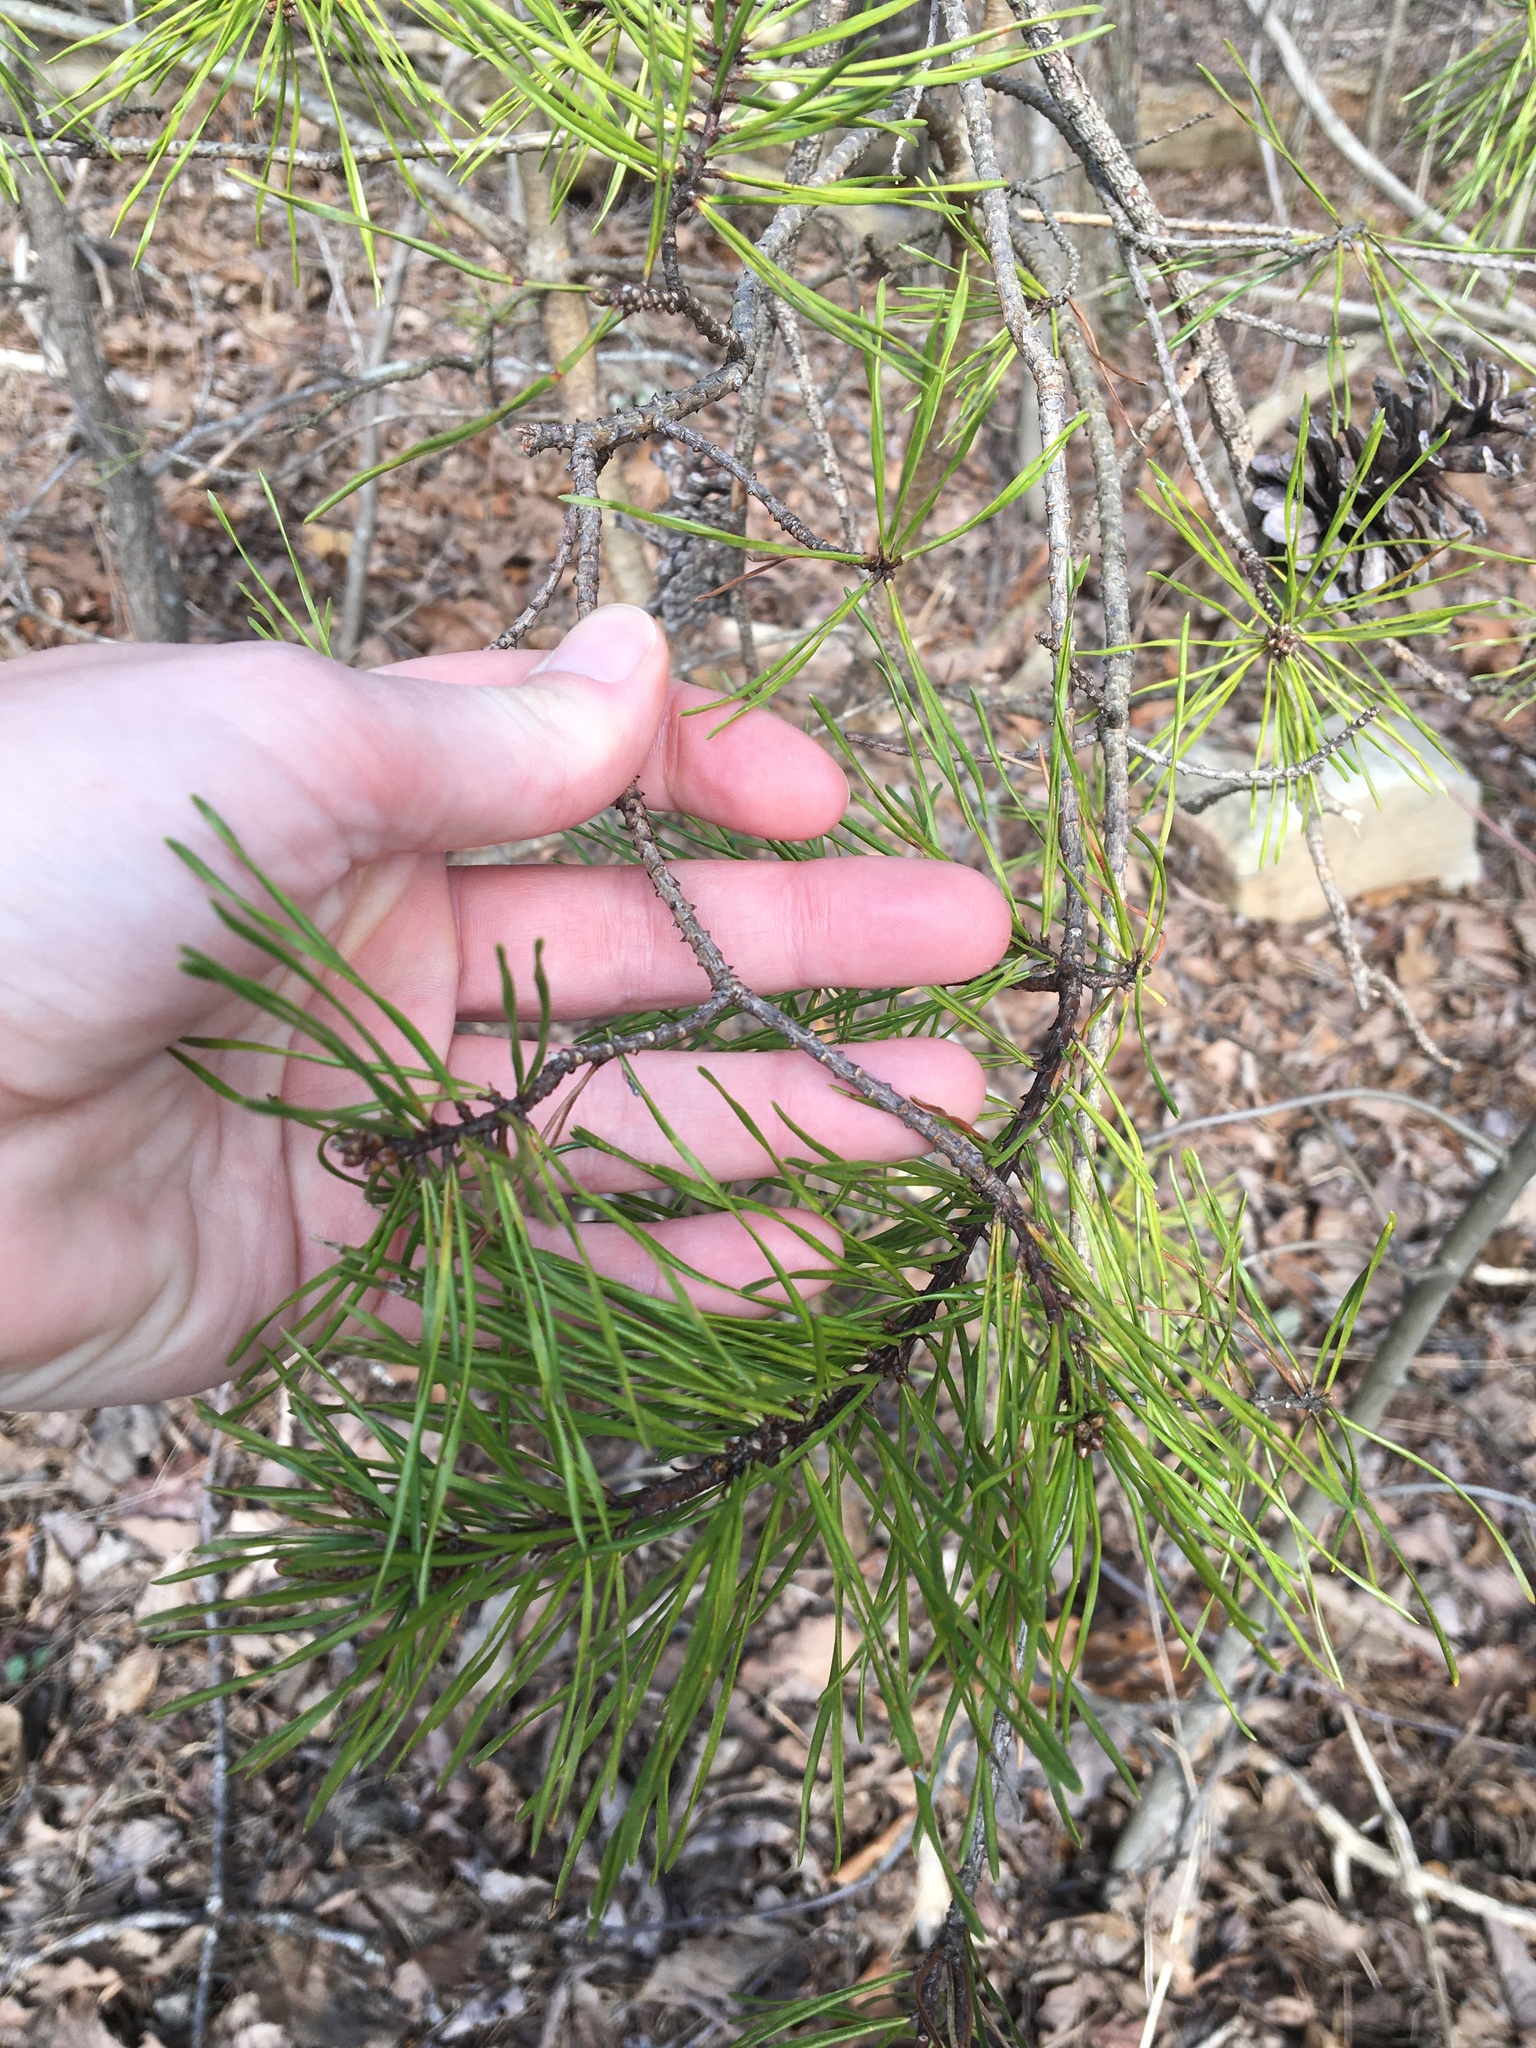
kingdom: Plantae
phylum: Tracheophyta
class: Pinopsida
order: Pinales
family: Pinaceae
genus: Pinus
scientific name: Pinus virginiana
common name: Scrub pine
